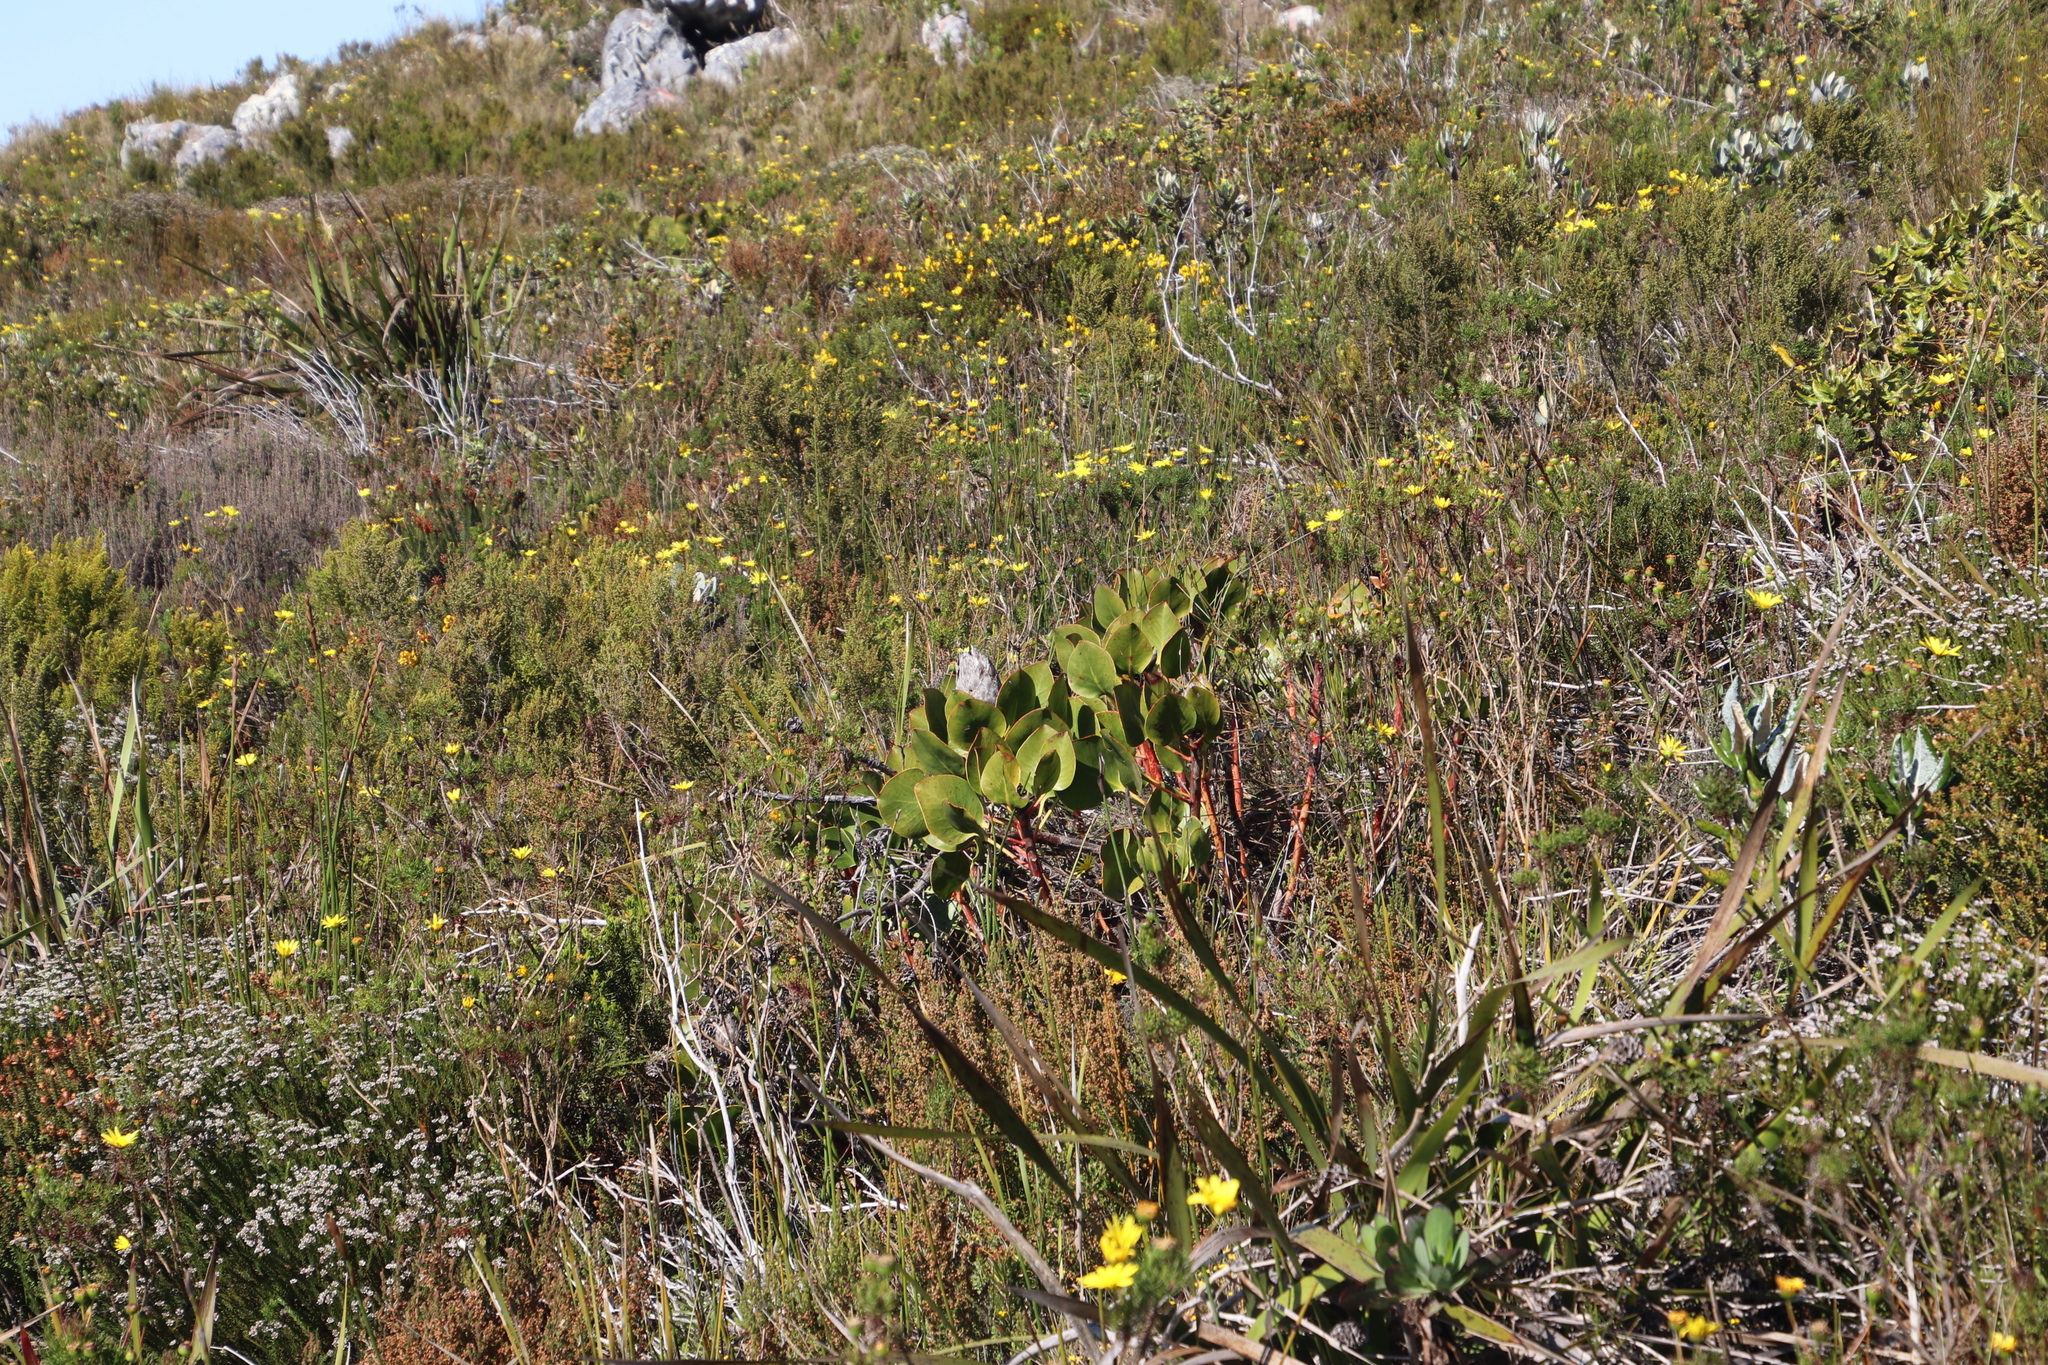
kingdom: Plantae
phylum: Tracheophyta
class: Magnoliopsida
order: Proteales
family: Proteaceae
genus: Protea
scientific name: Protea cynaroides
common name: King protea
